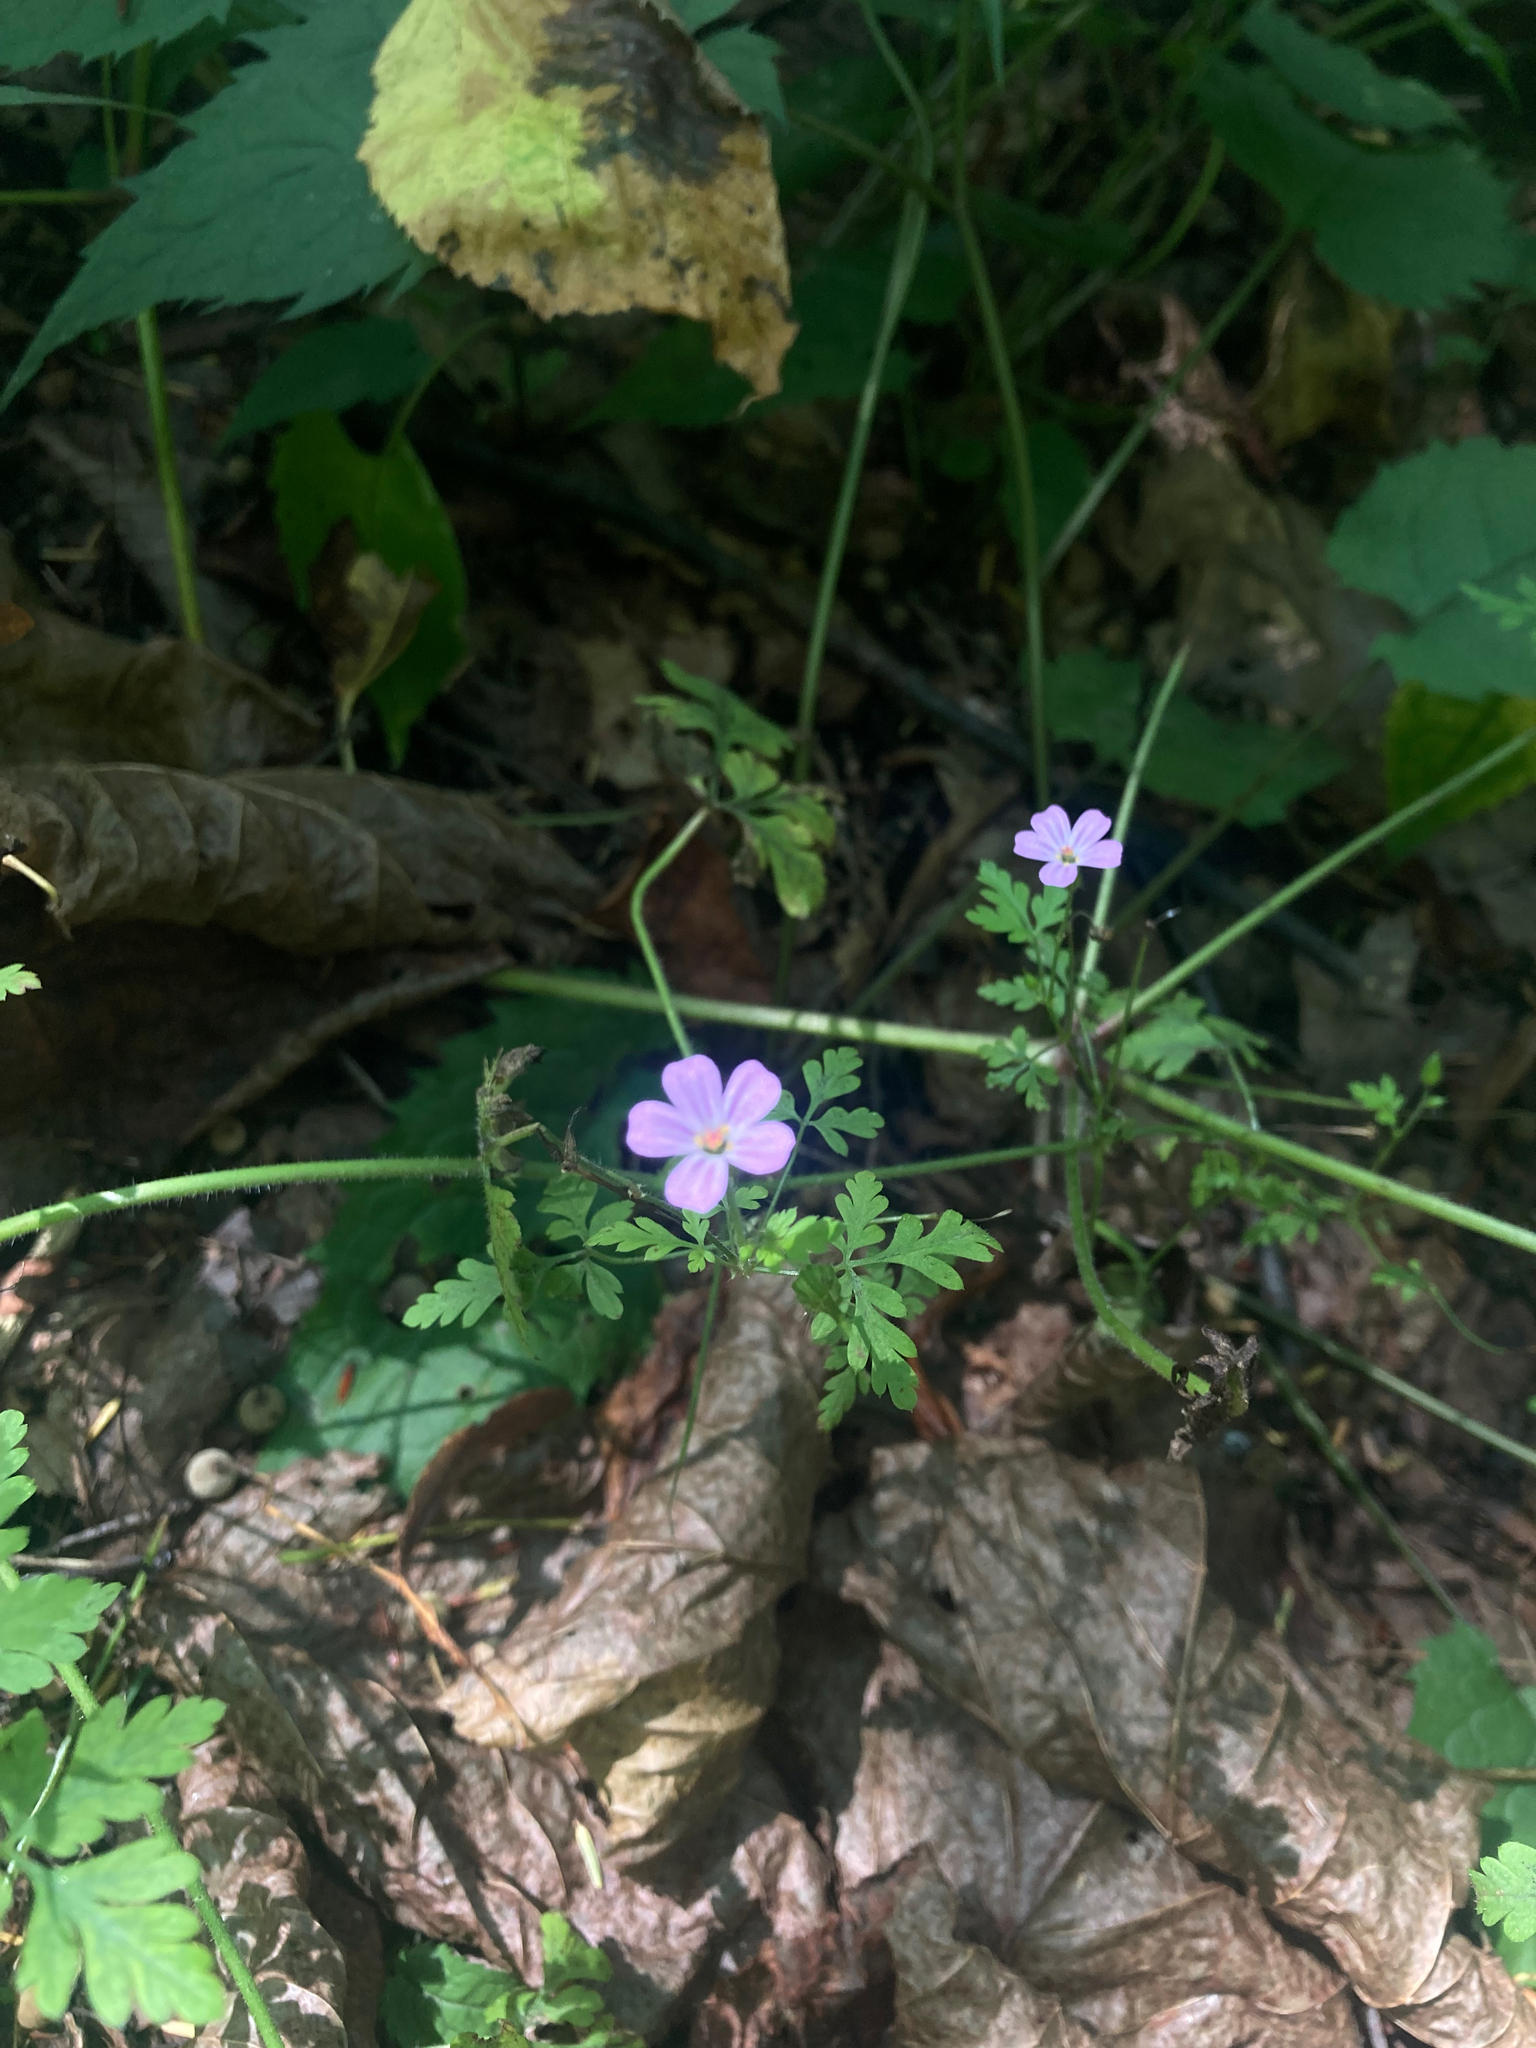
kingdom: Plantae
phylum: Tracheophyta
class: Magnoliopsida
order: Geraniales
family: Geraniaceae
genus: Geranium
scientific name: Geranium robertianum
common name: Herb-robert
